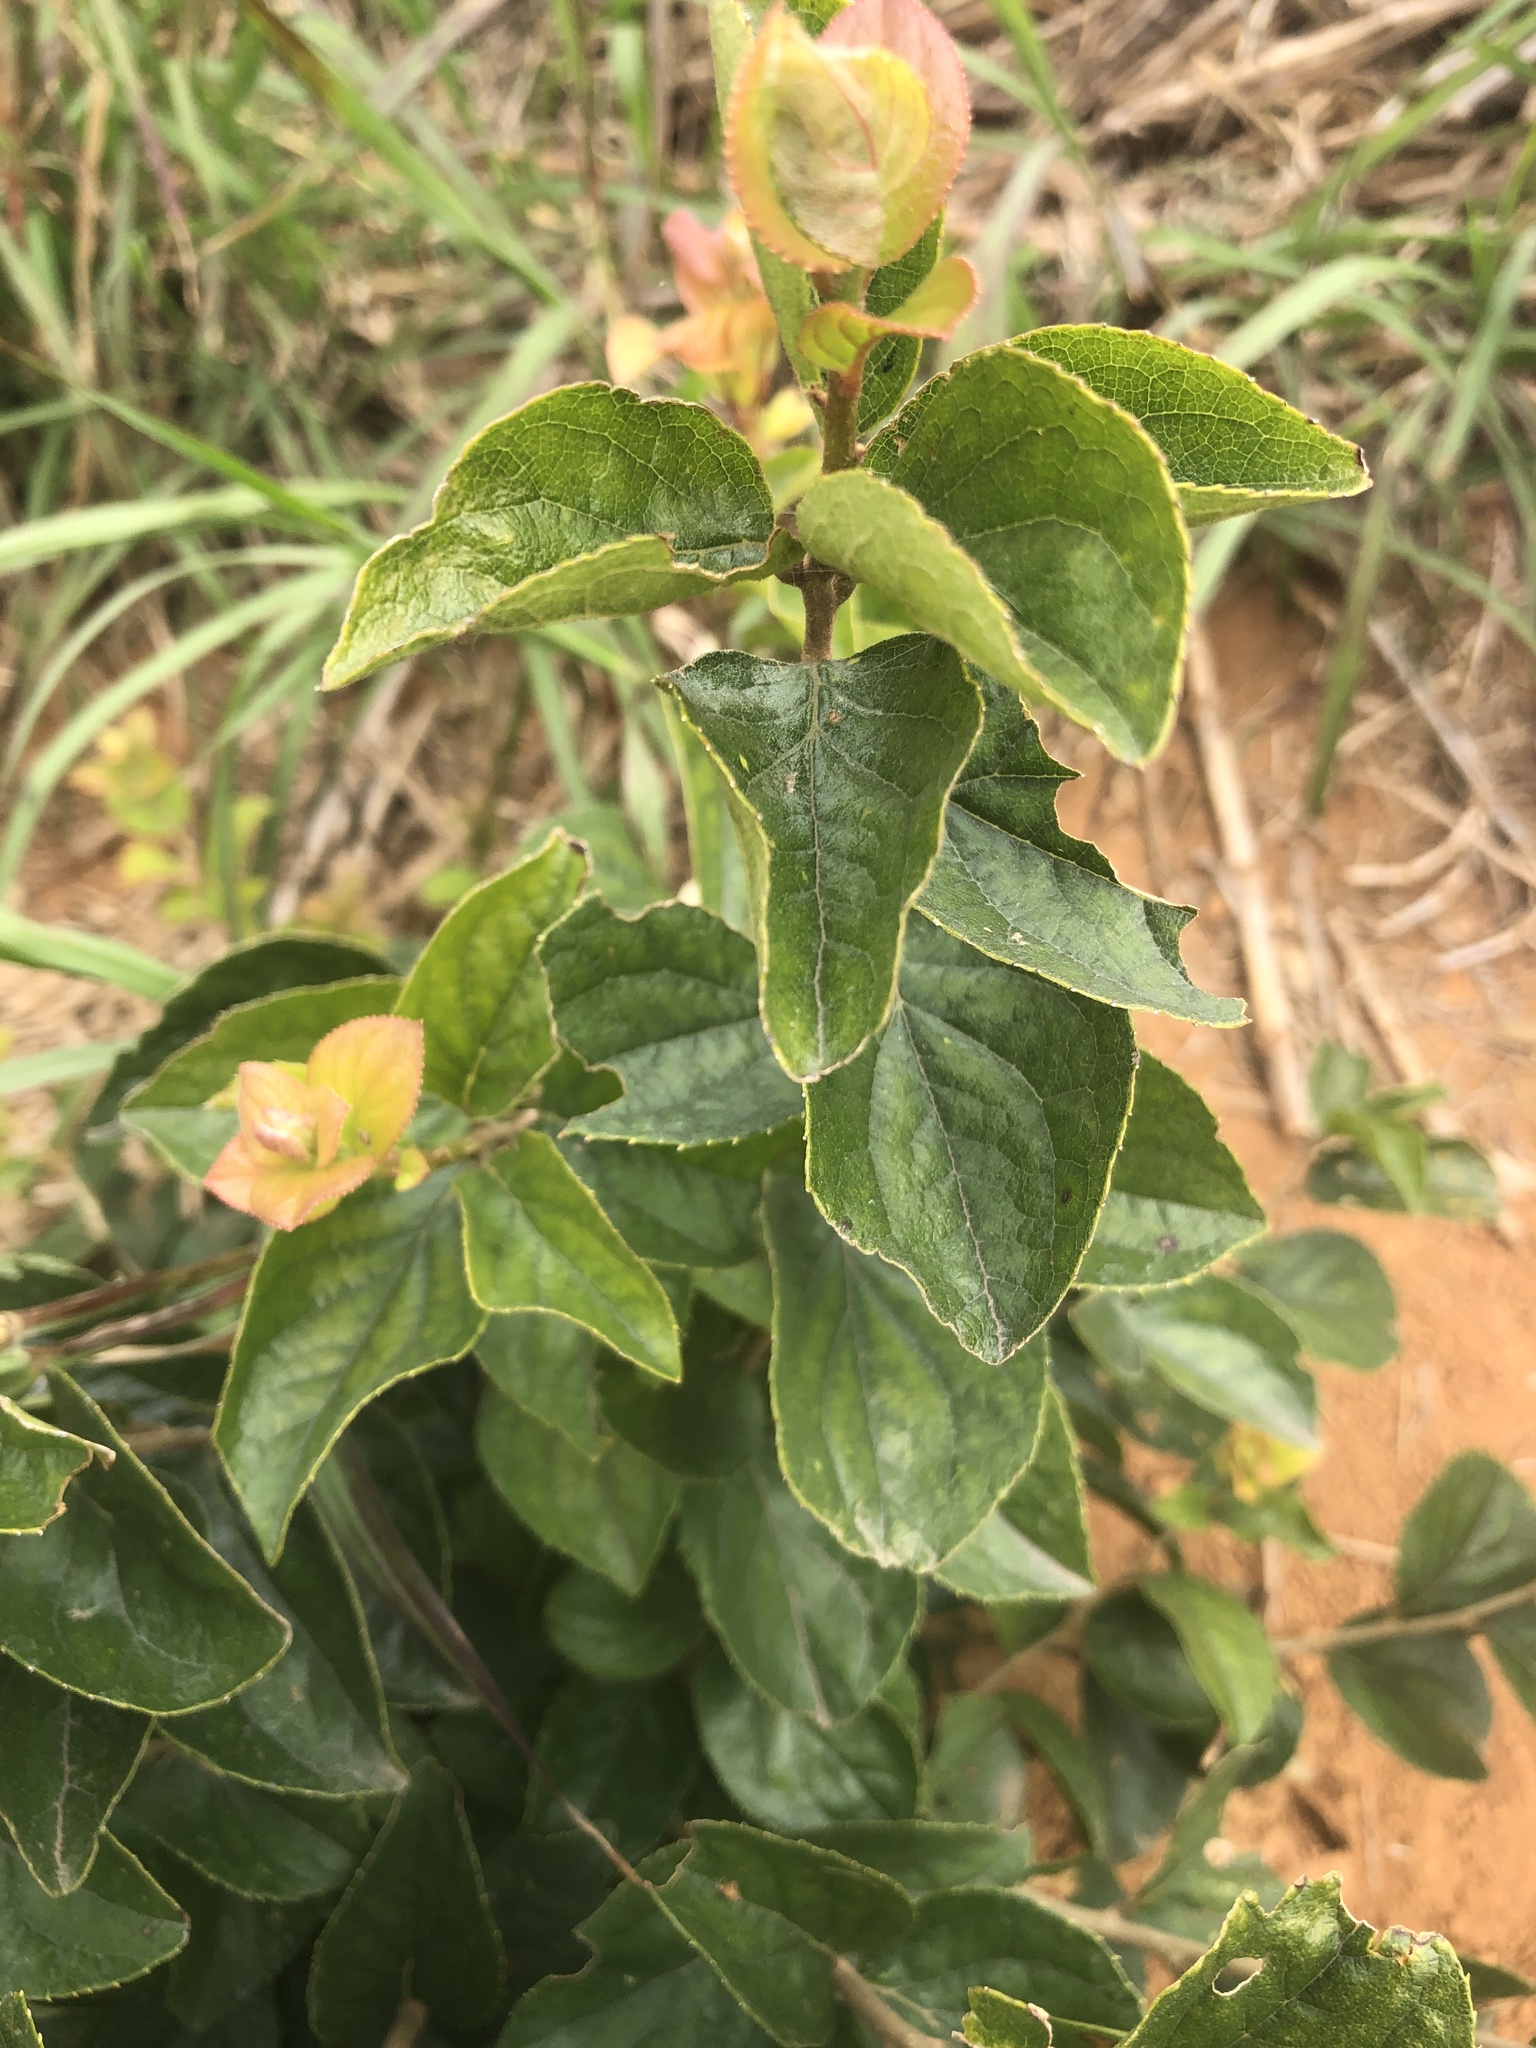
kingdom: Plantae
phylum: Tracheophyta
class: Magnoliopsida
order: Ericales
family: Symplocaceae
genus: Symplocos
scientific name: Symplocos paniculata
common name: Sapphire-berry
